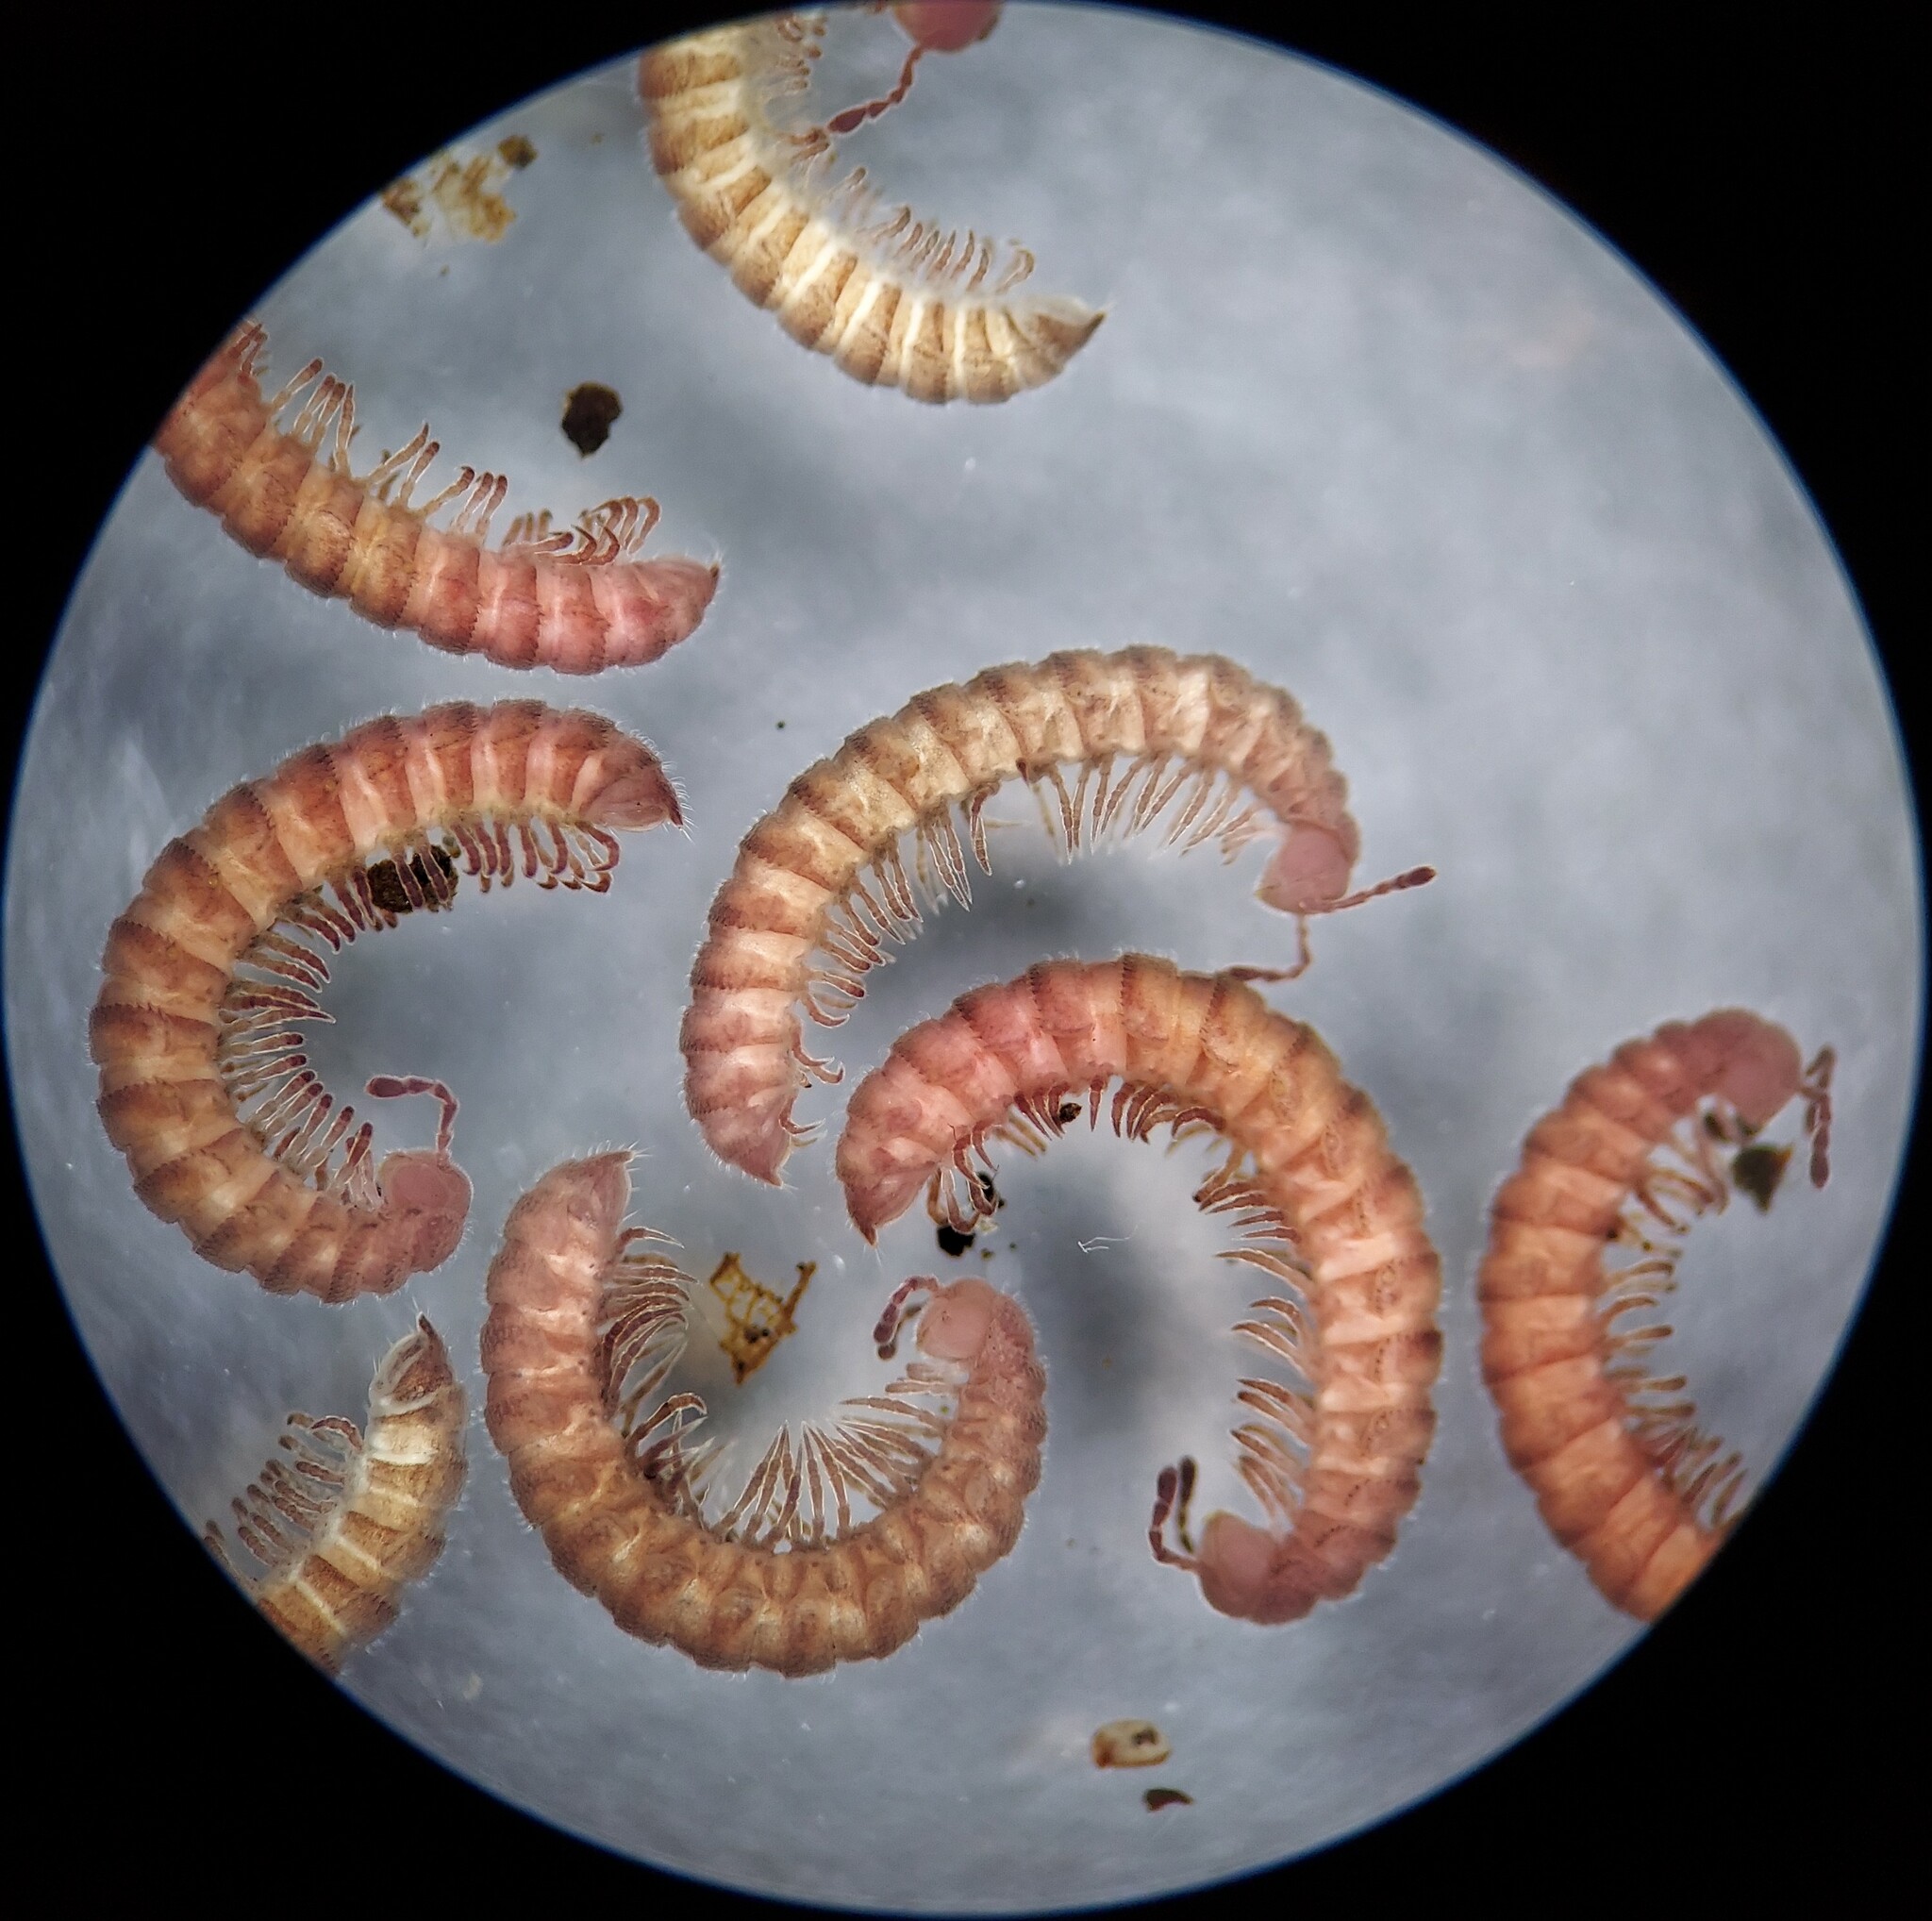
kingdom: Animalia
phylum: Arthropoda
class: Diplopoda
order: Polydesmida
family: Polydesmidae
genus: Scytonotus
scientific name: Scytonotus granulatus
